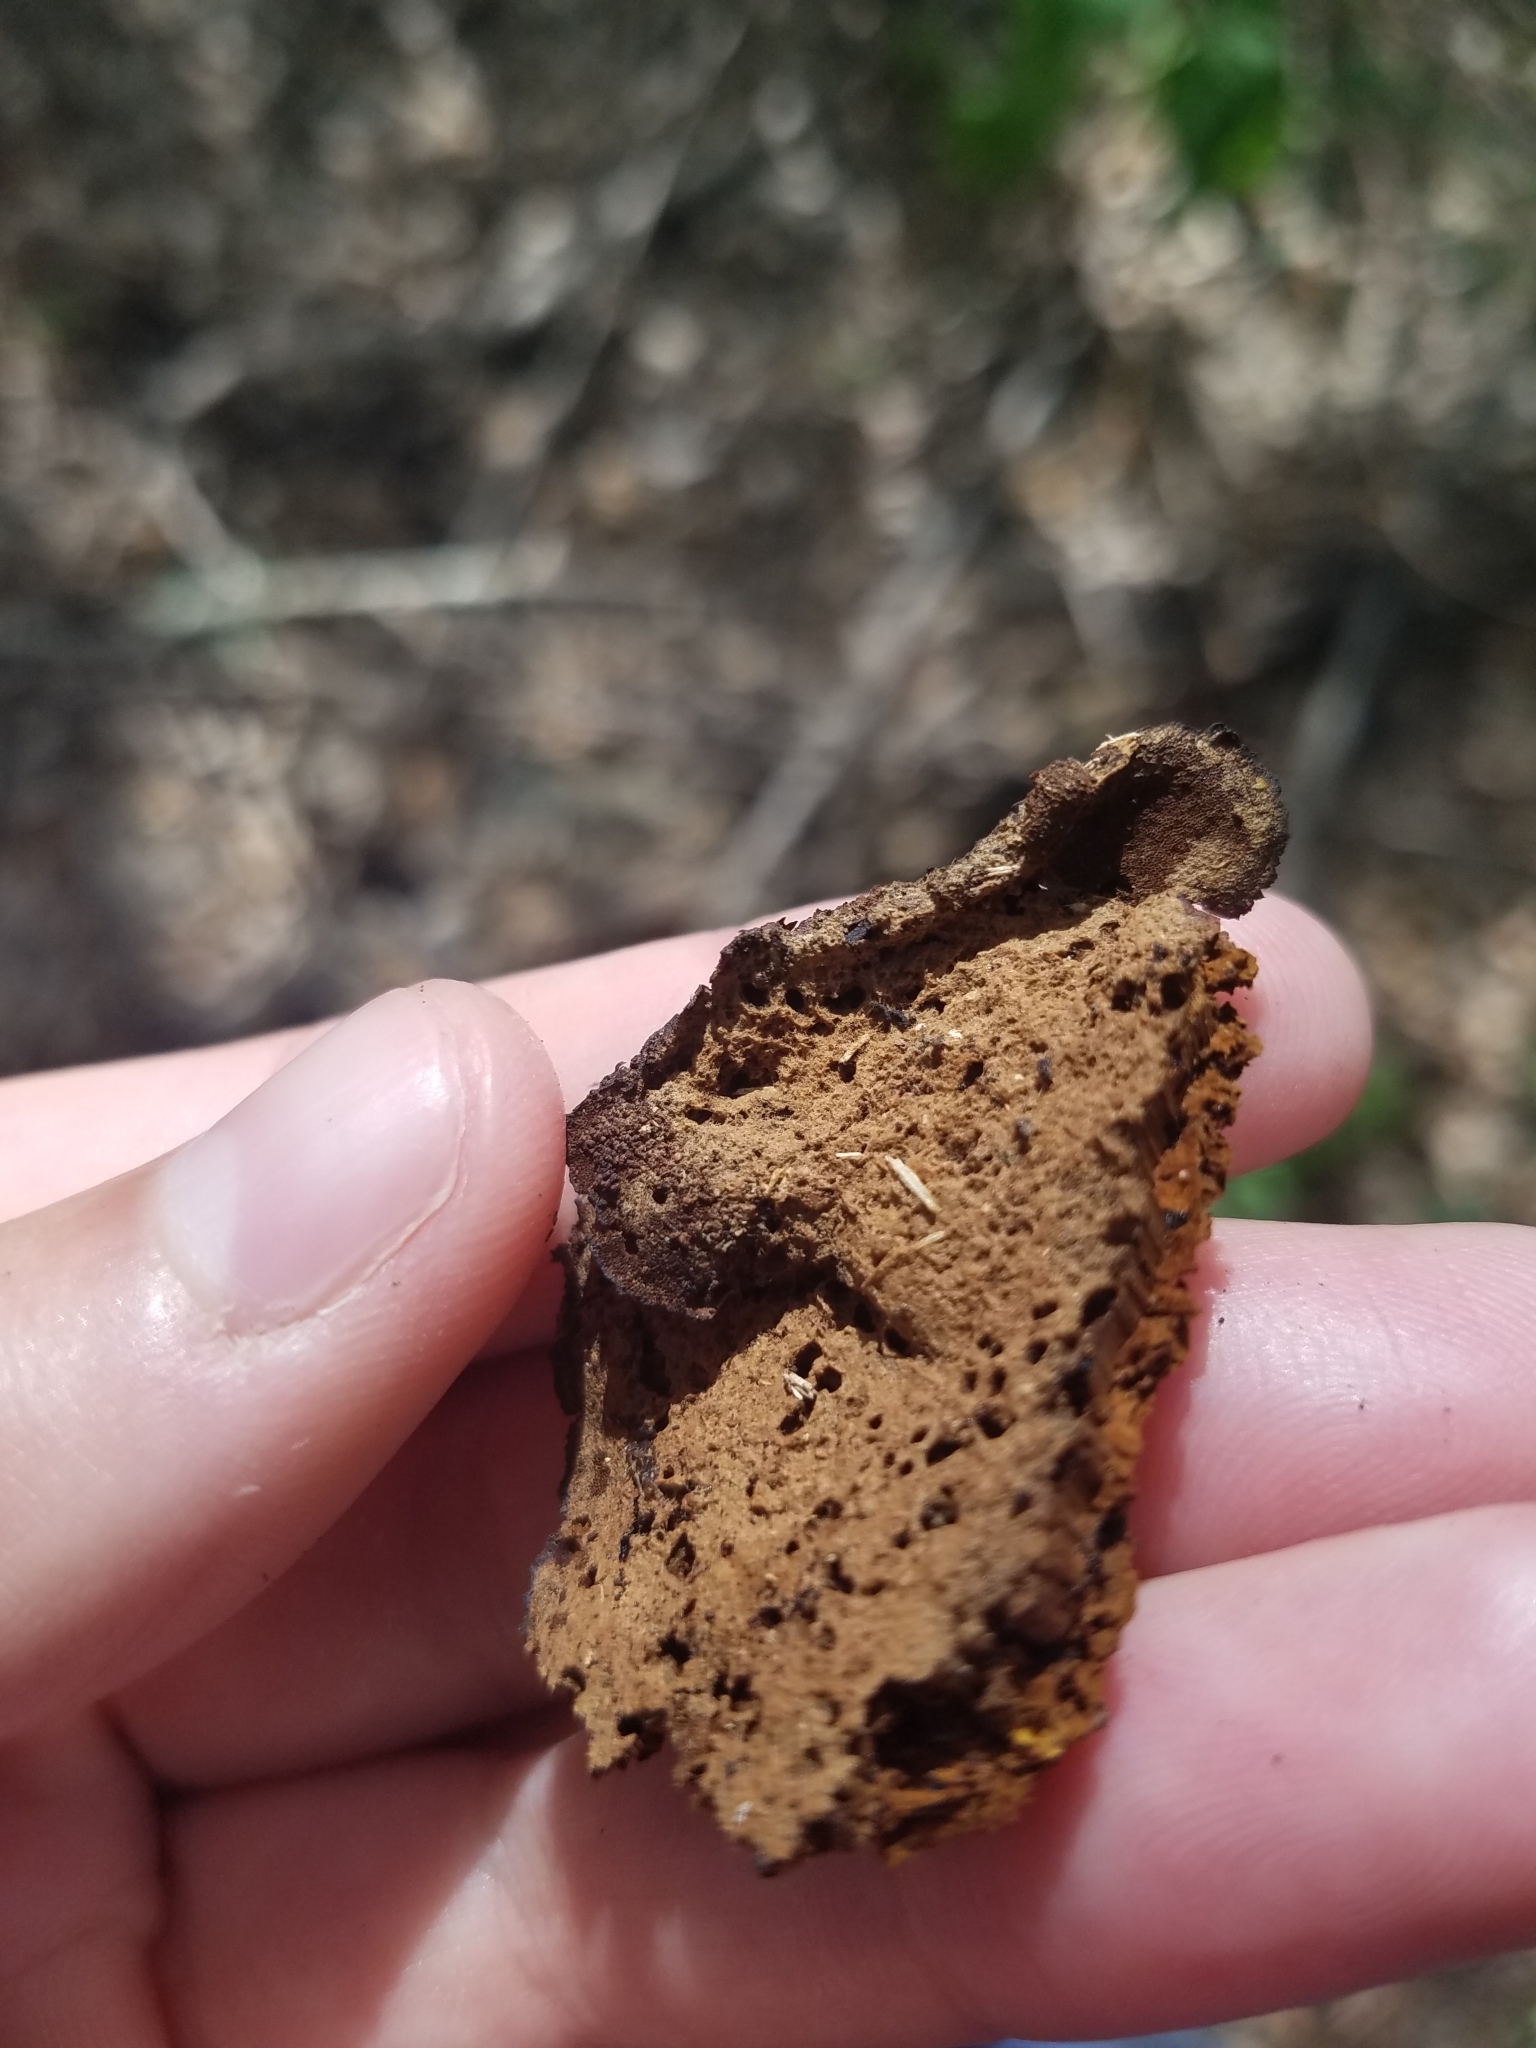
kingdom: Fungi
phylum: Basidiomycota
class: Agaricomycetes
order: Hymenochaetales
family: Hymenochaetaceae
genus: Phellinus
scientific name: Phellinus gilvus
